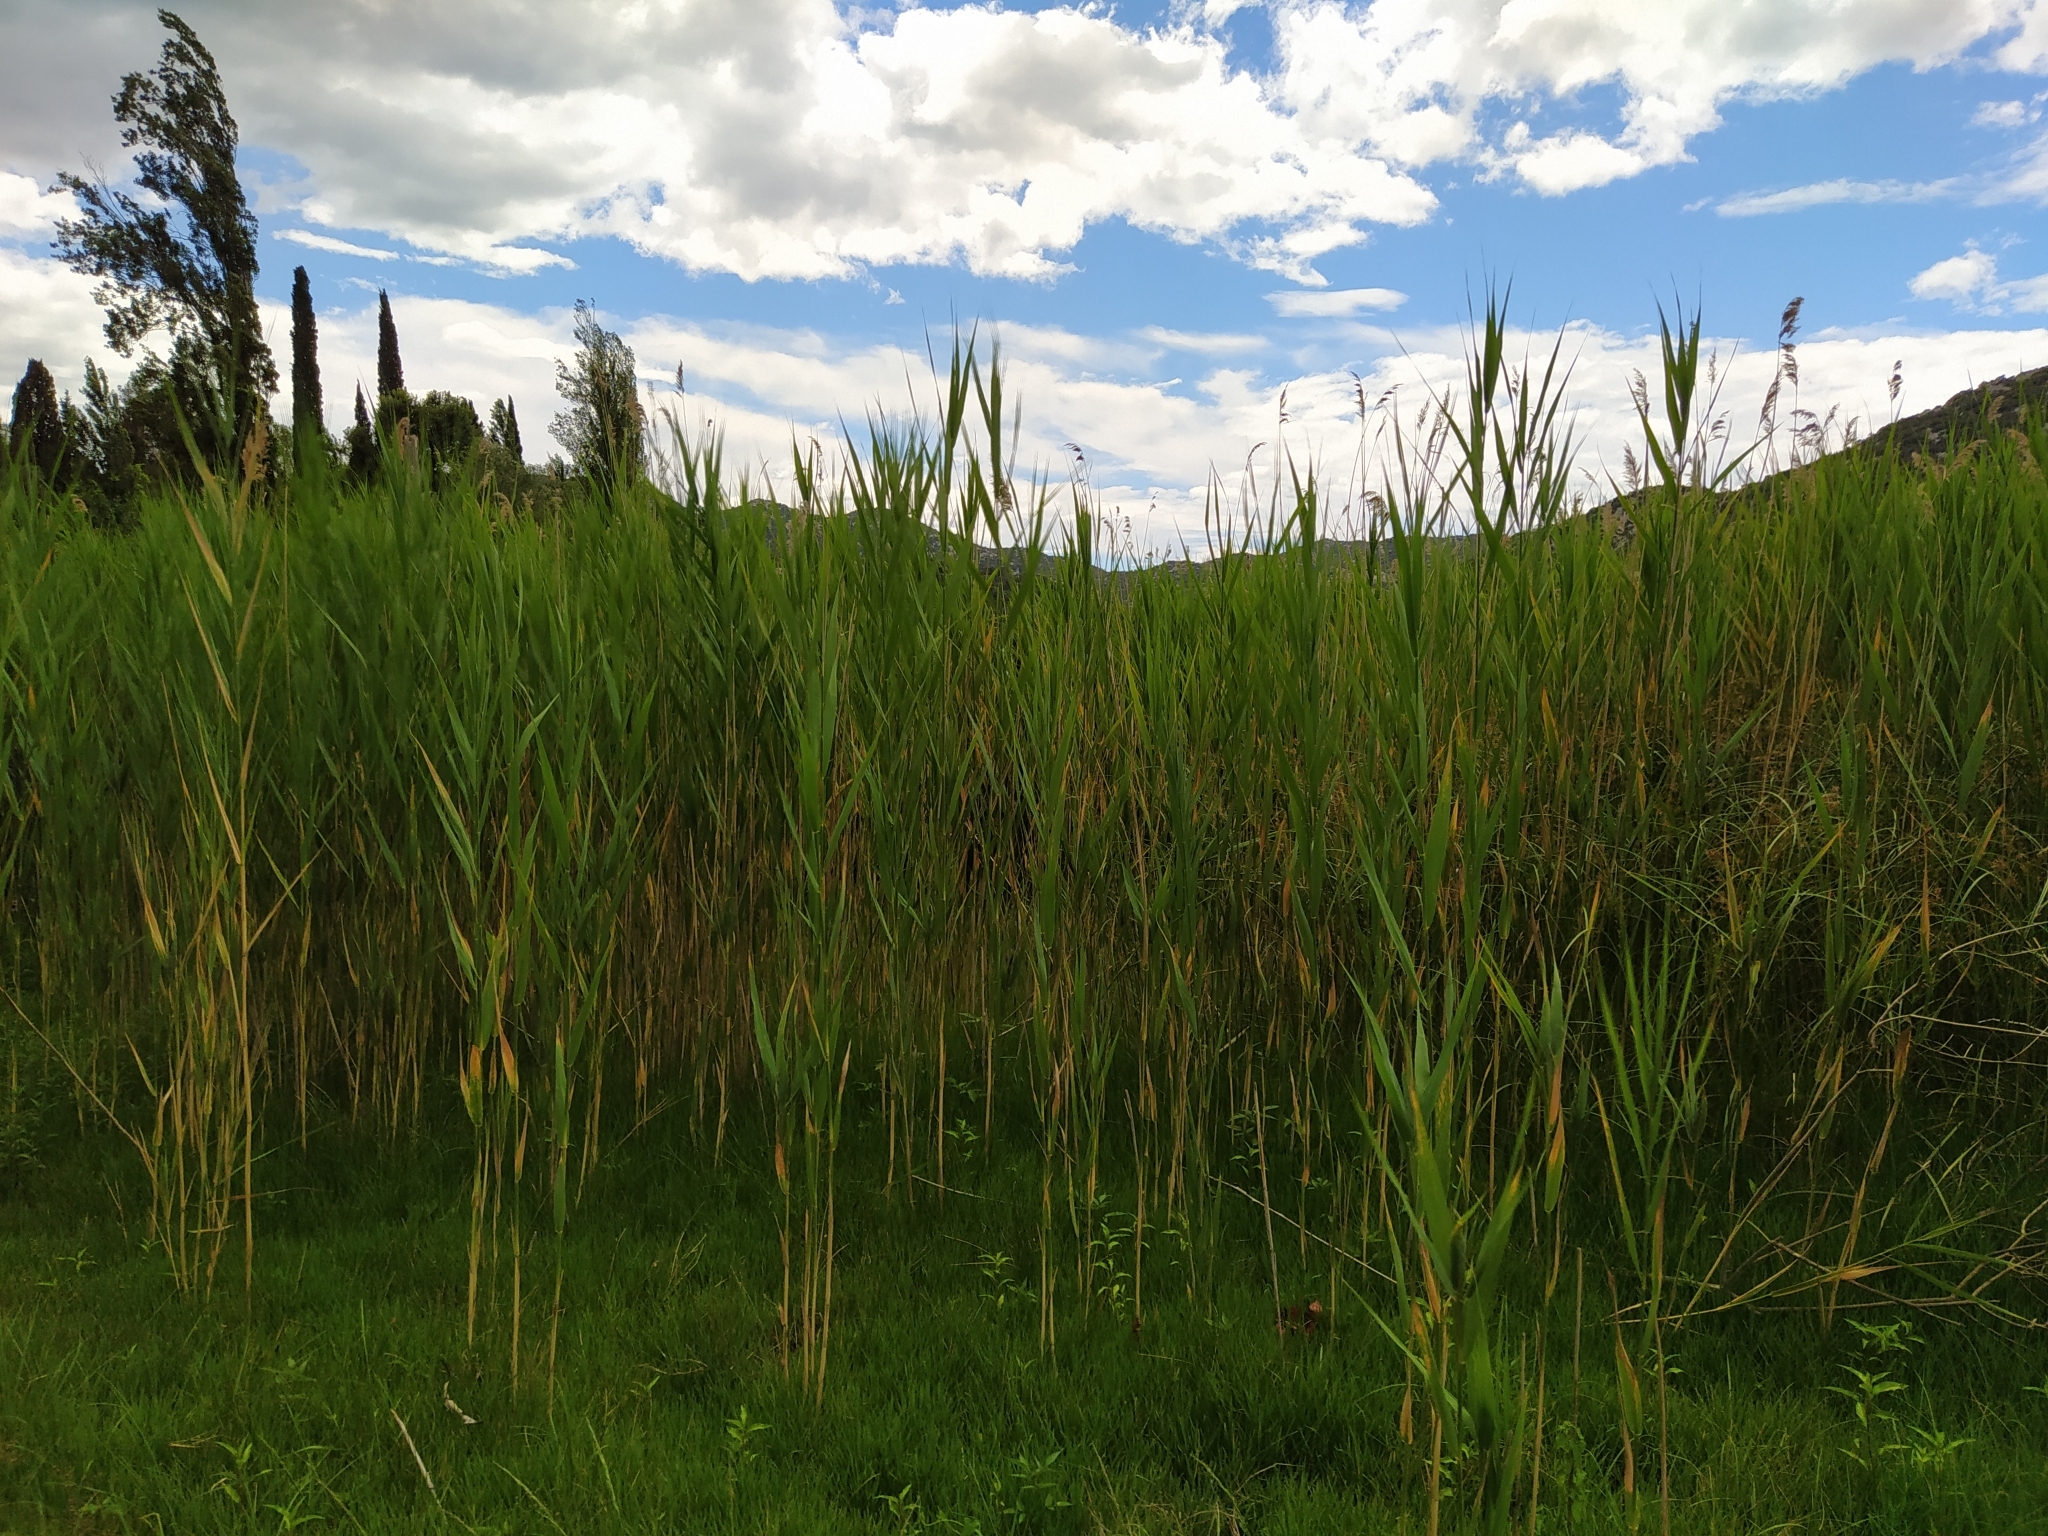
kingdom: Plantae
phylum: Tracheophyta
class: Liliopsida
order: Poales
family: Poaceae
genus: Phragmites
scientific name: Phragmites australis
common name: Common reed
